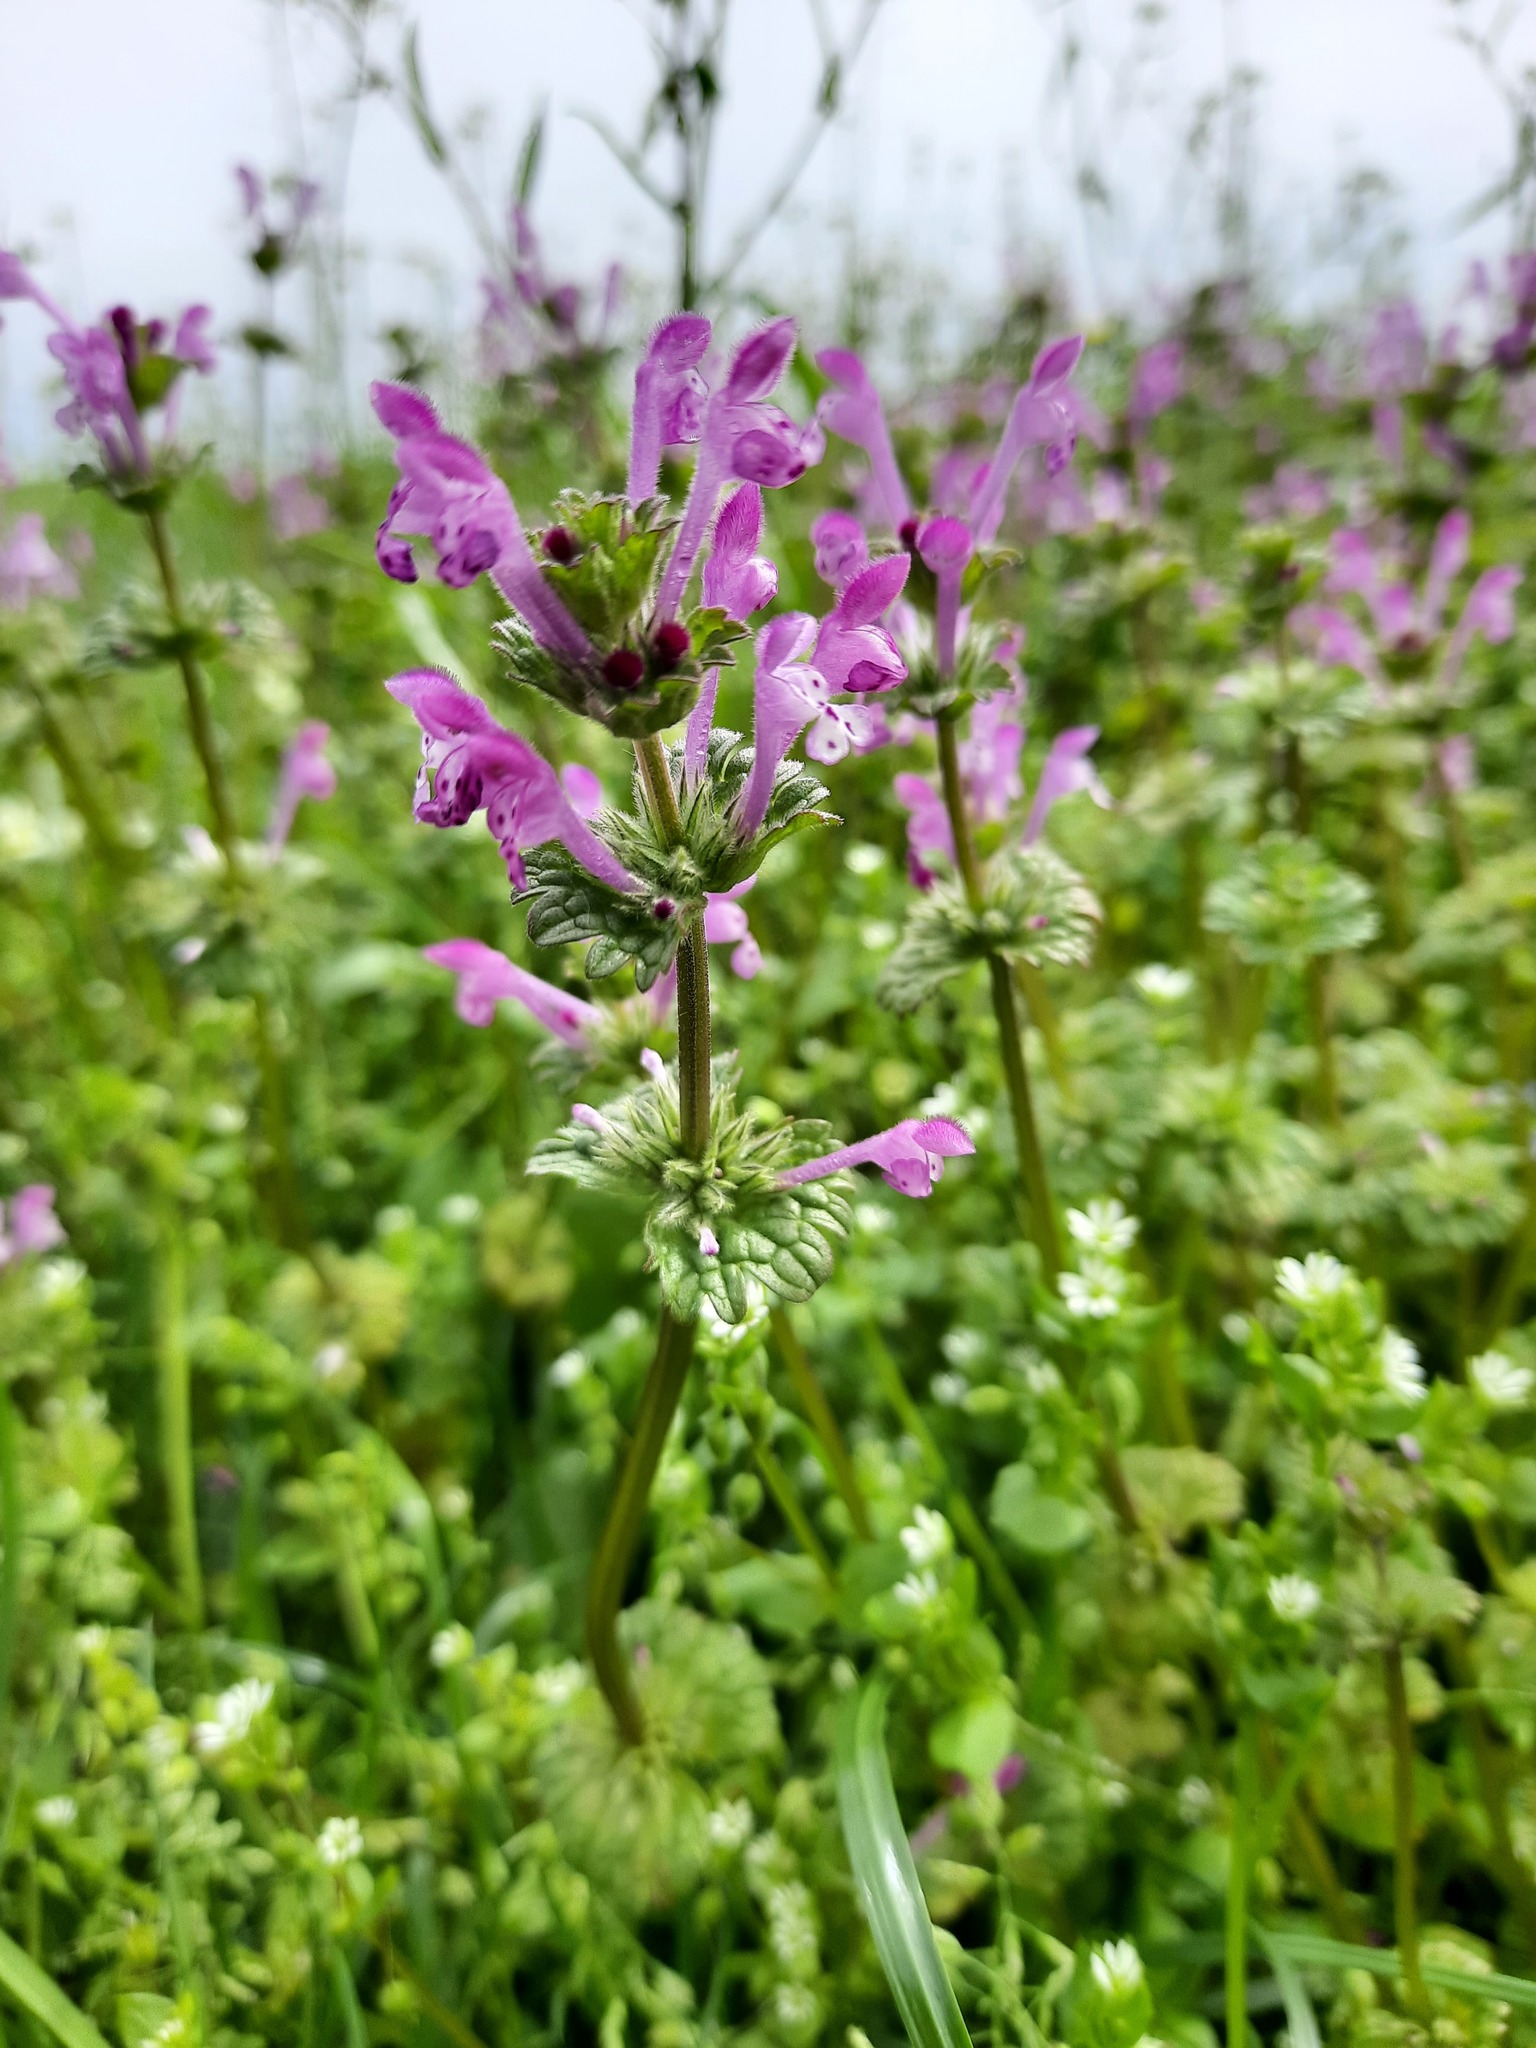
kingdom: Plantae
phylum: Tracheophyta
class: Magnoliopsida
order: Lamiales
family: Lamiaceae
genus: Lamium
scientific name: Lamium amplexicaule
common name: Henbit dead-nettle
